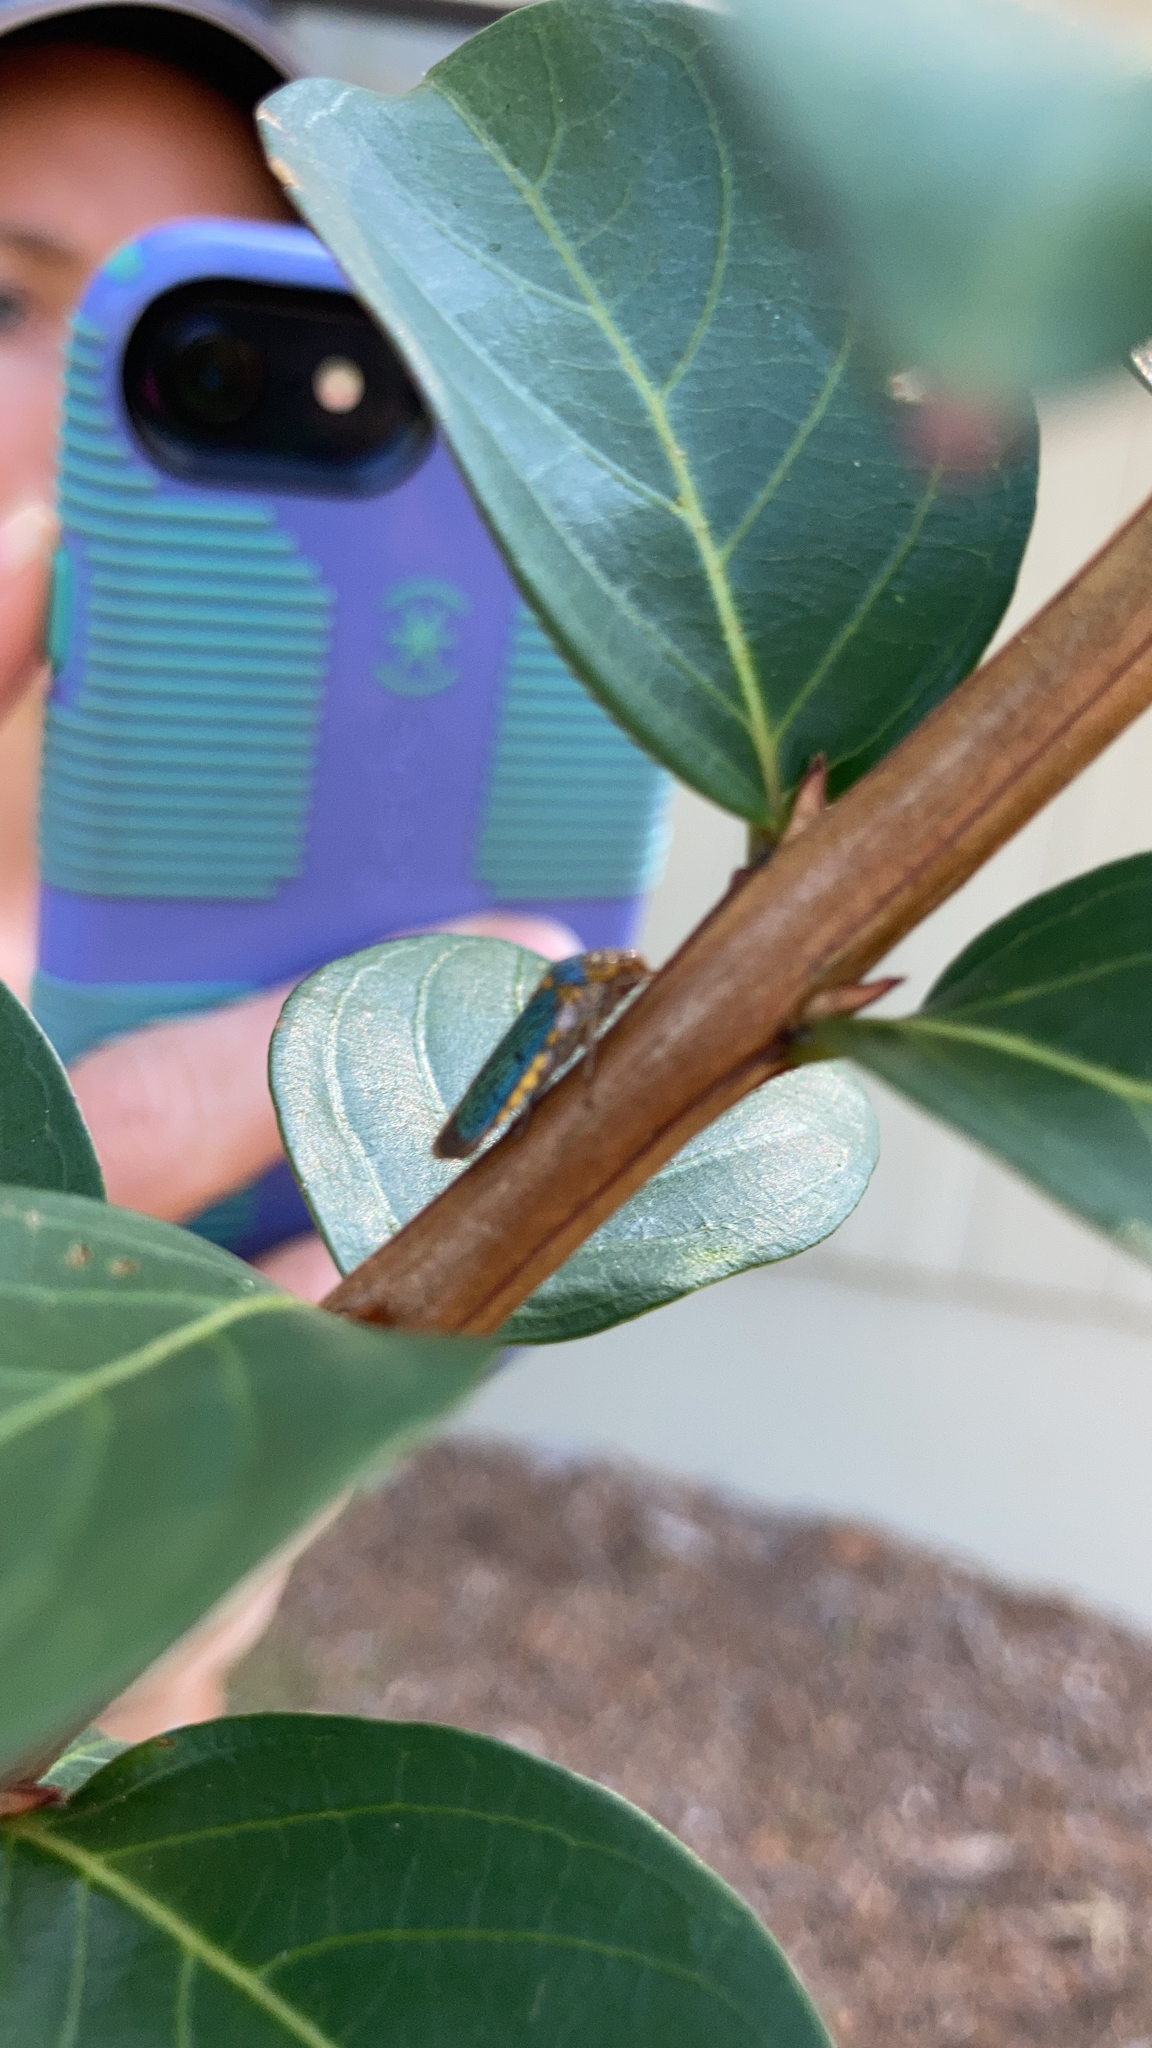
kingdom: Animalia
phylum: Arthropoda
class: Insecta
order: Hemiptera
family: Cicadellidae
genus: Oncometopia
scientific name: Oncometopia orbona
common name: Broad-headed sharpshooter
